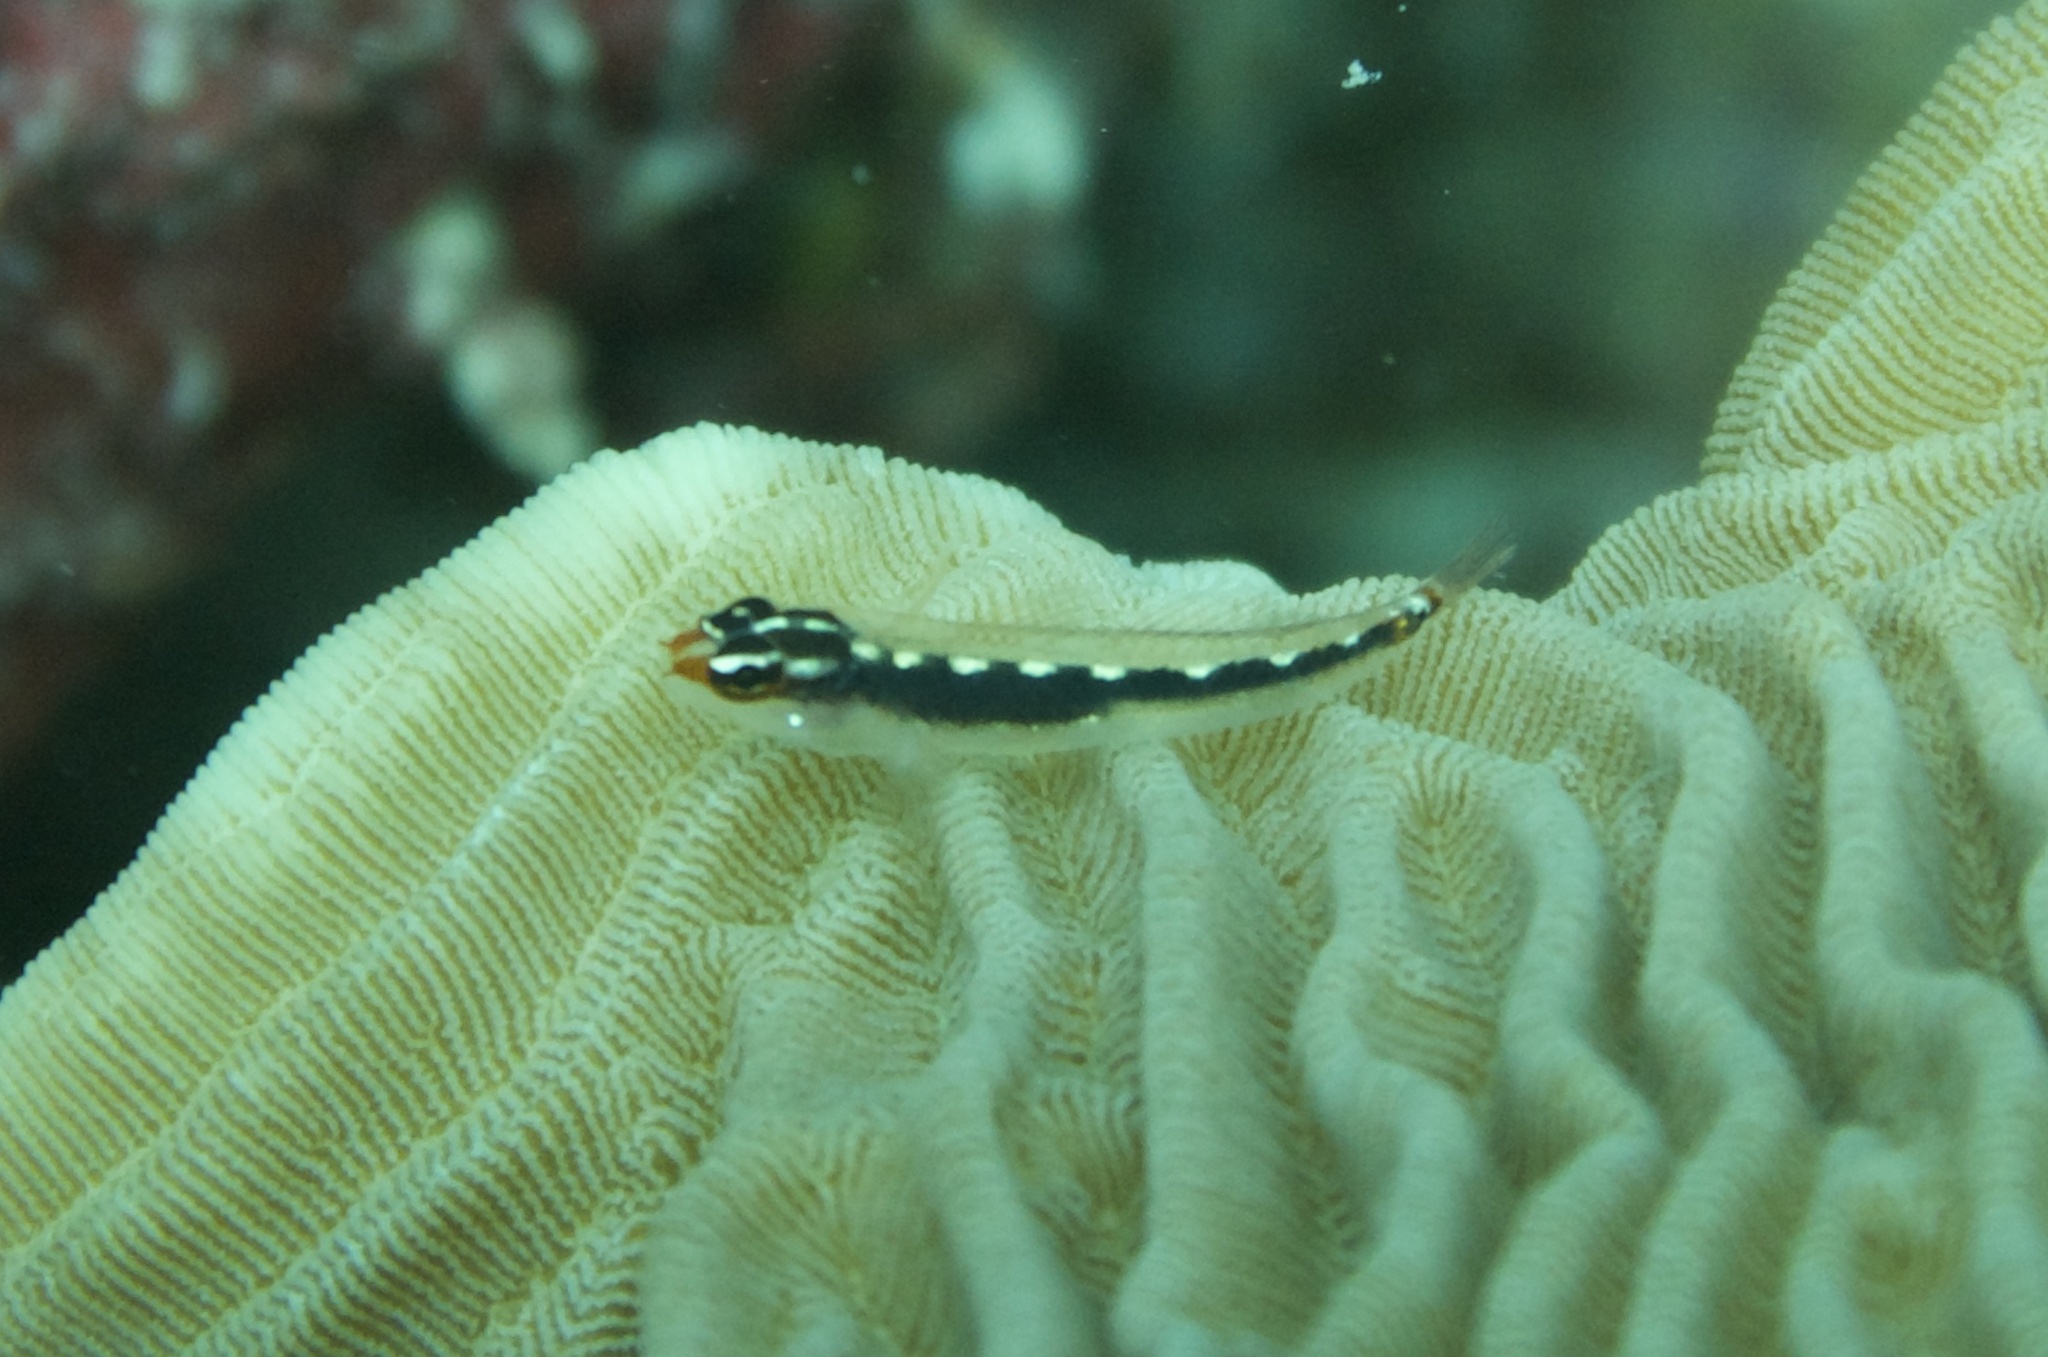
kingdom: Animalia
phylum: Chordata
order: Perciformes
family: Gobiidae
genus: Eviota
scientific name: Eviota sebreei
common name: Sebree's pygmy goby
